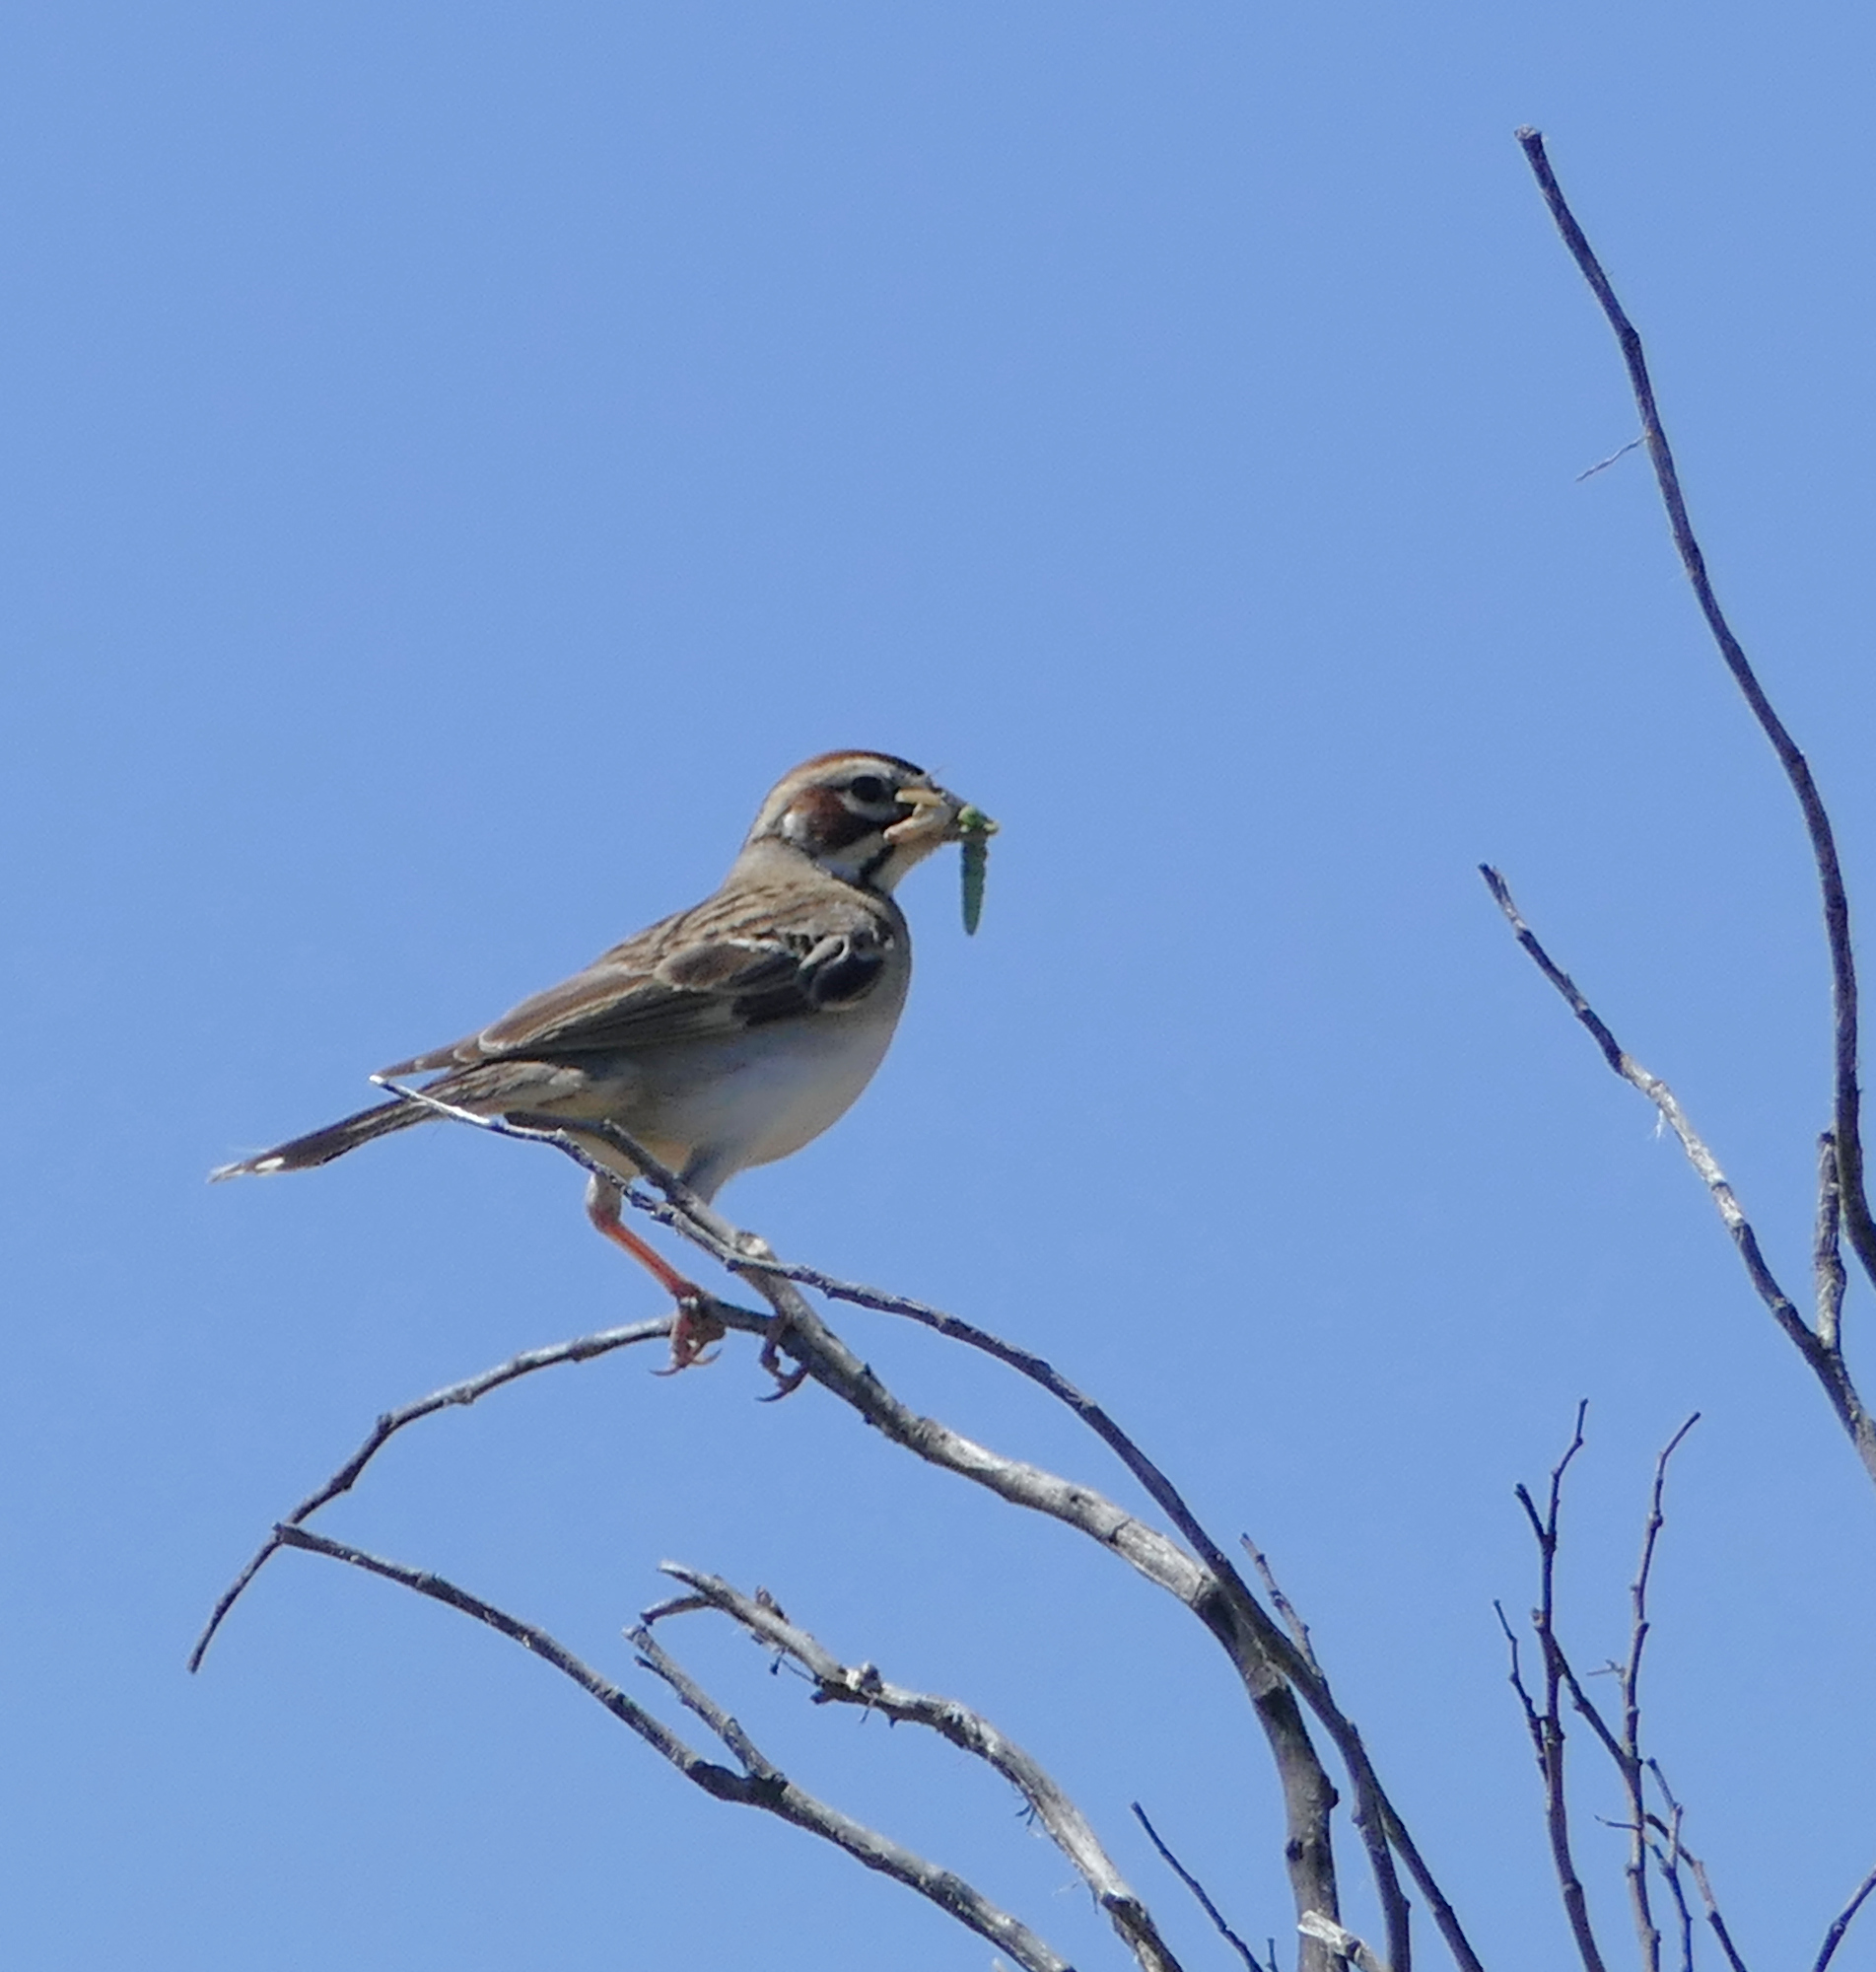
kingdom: Animalia
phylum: Chordata
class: Aves
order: Passeriformes
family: Passerellidae
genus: Chondestes
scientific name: Chondestes grammacus
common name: Lark sparrow
